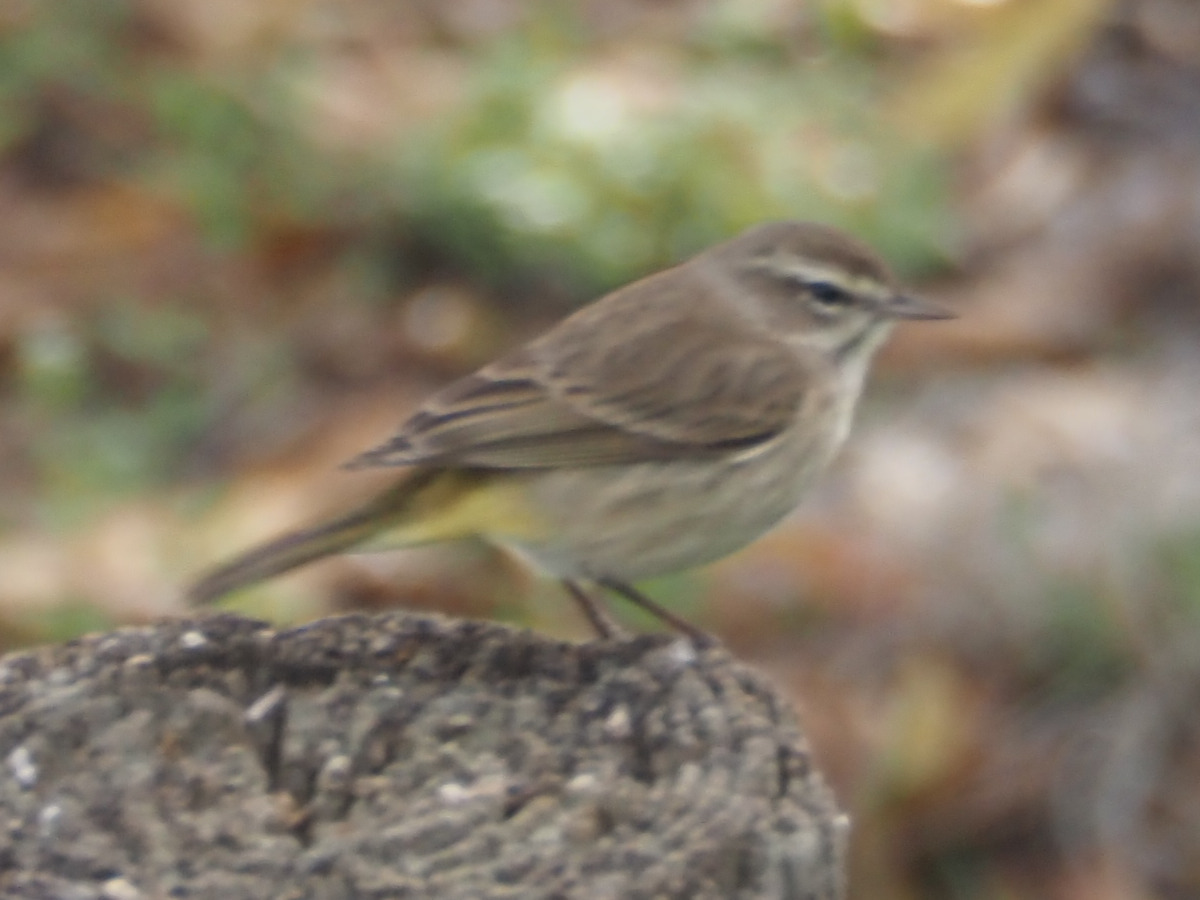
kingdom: Animalia
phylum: Chordata
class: Aves
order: Passeriformes
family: Parulidae
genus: Setophaga
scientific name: Setophaga palmarum
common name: Palm warbler
